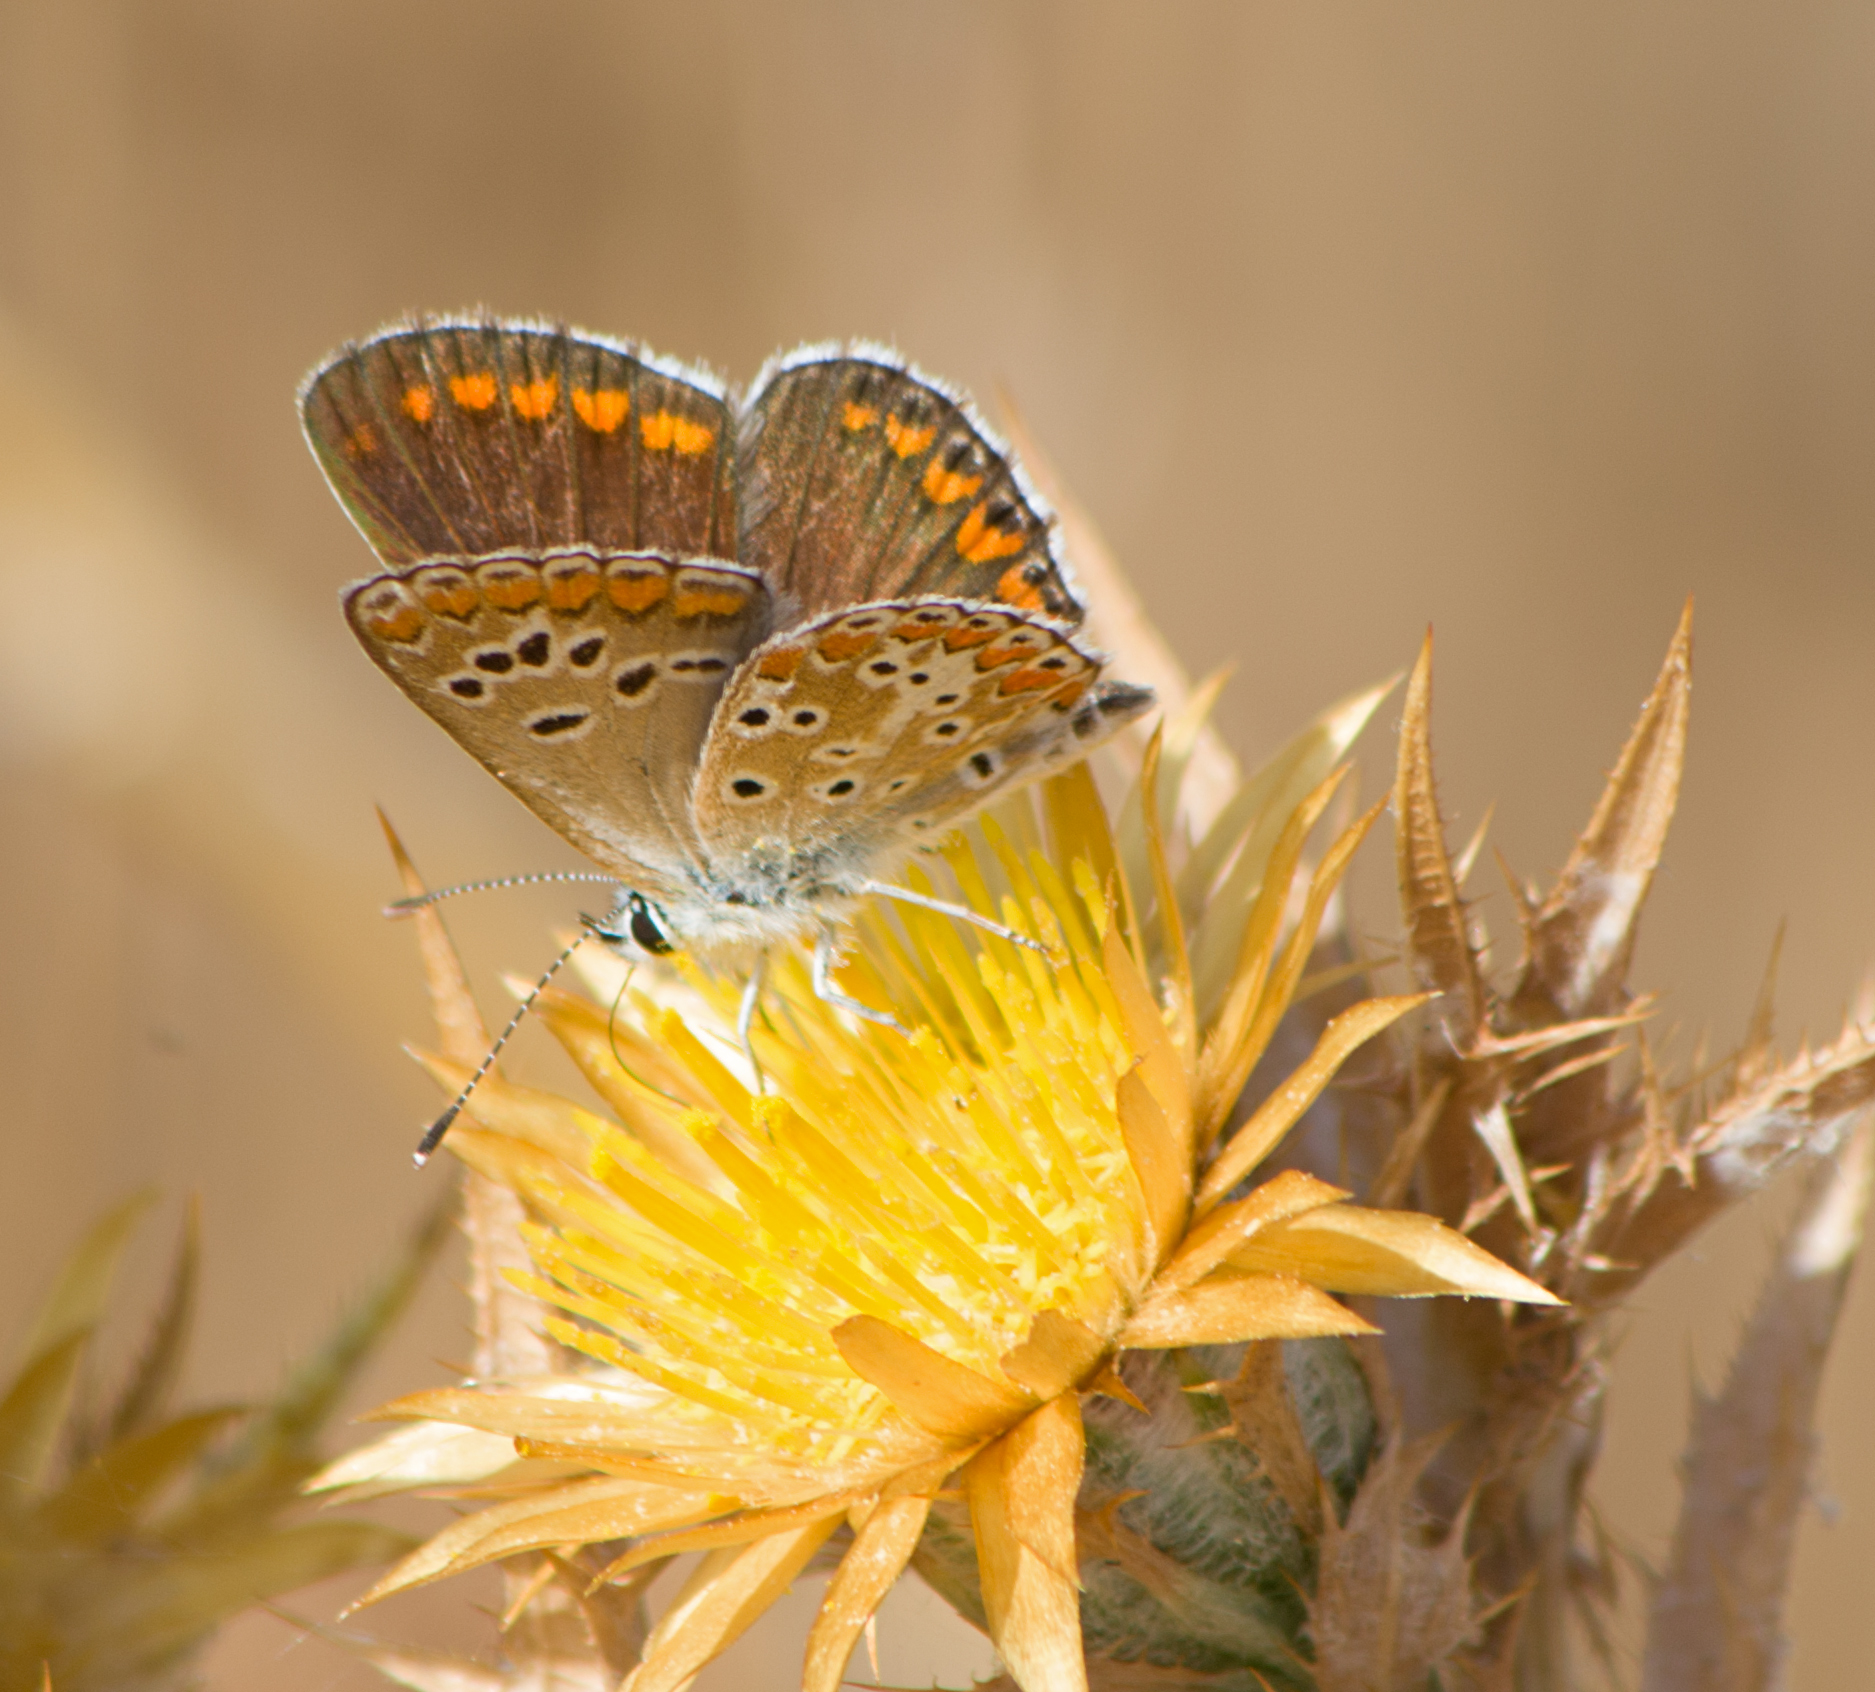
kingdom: Animalia
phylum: Arthropoda
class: Insecta
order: Lepidoptera
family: Lycaenidae
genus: Aricia
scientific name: Aricia agestis
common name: Brown argus
